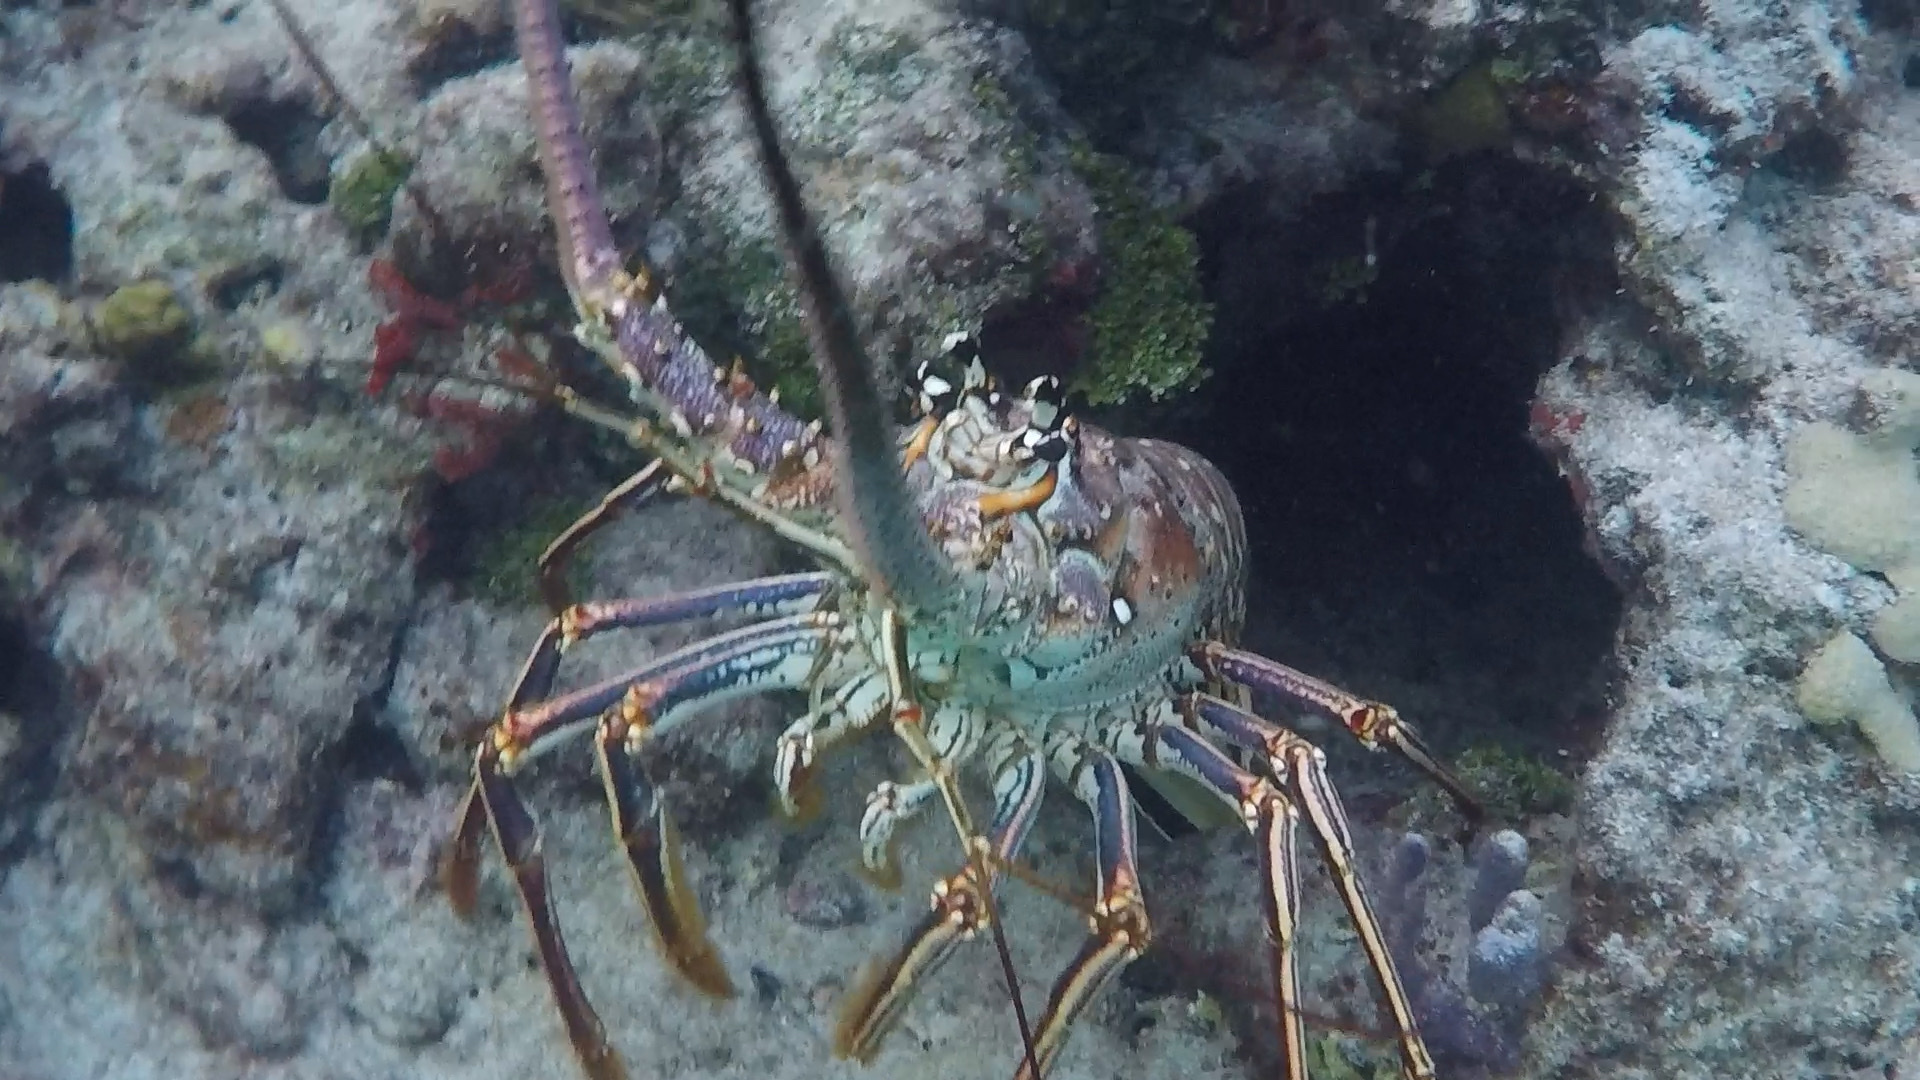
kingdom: Animalia
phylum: Arthropoda
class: Malacostraca
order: Decapoda
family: Palinuridae
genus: Panulirus
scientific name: Panulirus argus
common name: Caribbean spiny lobster
